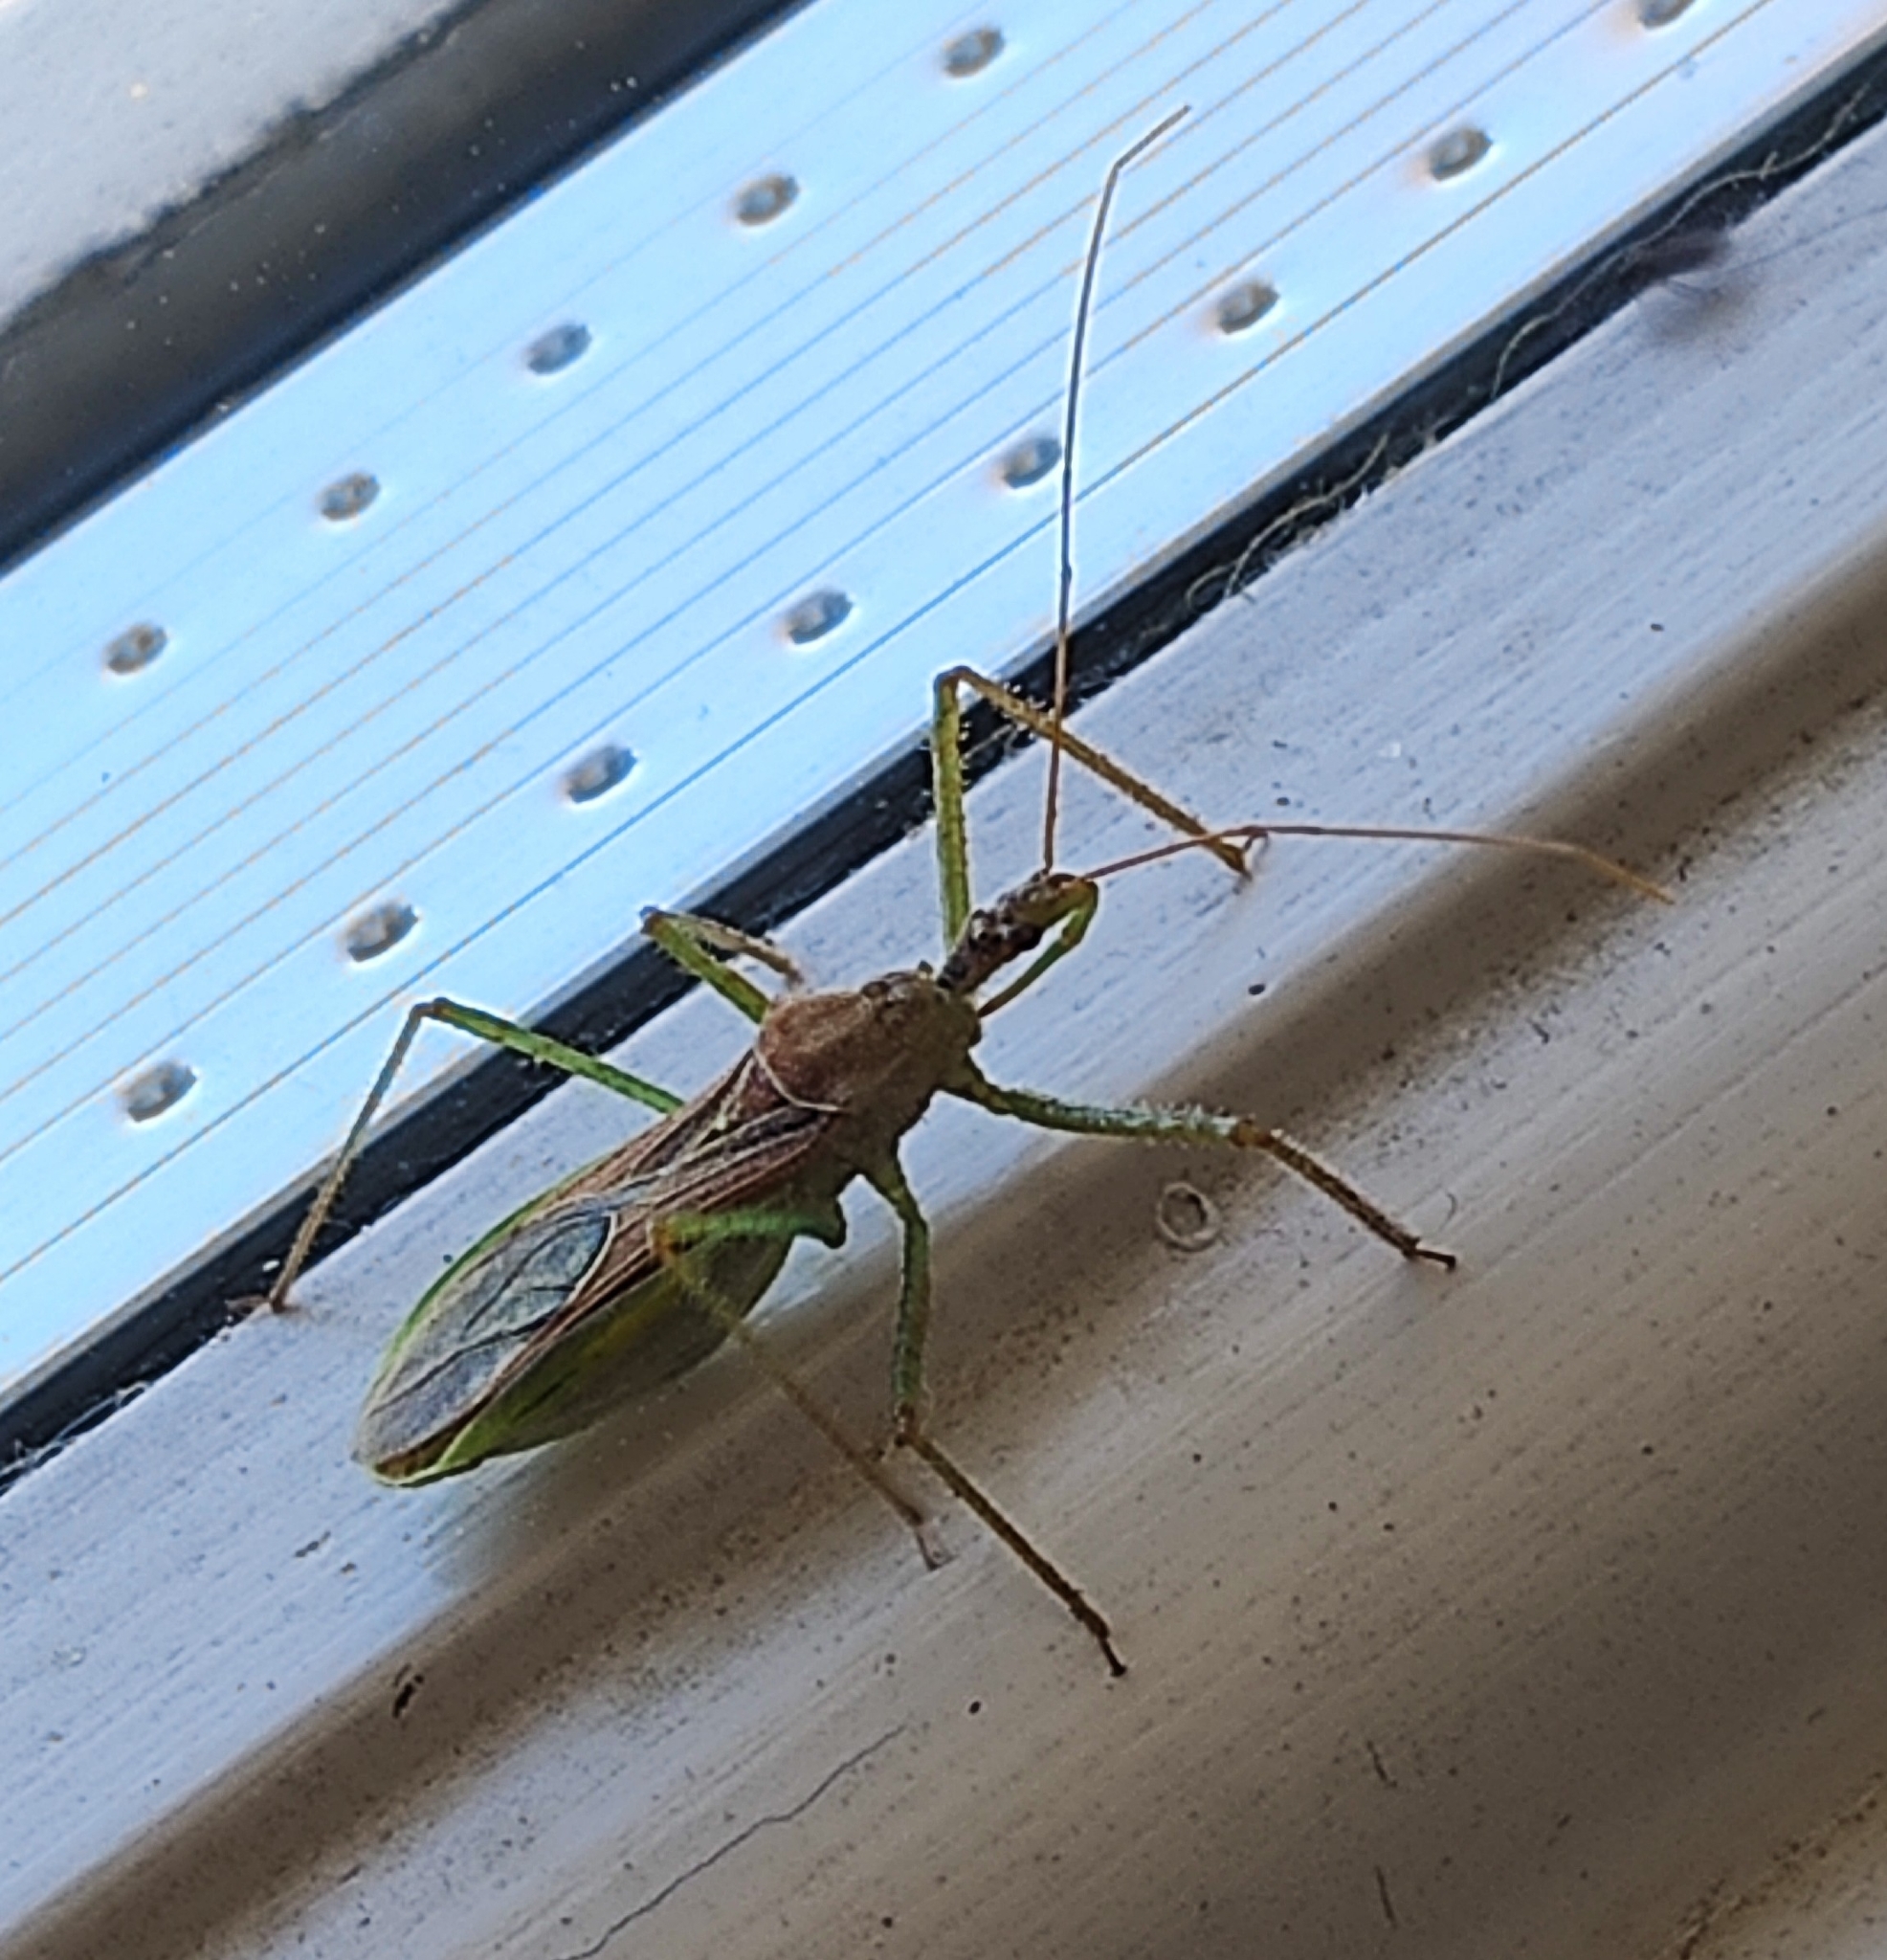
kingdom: Animalia
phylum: Arthropoda
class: Insecta
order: Hemiptera
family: Reduviidae
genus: Zelus
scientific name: Zelus renardii
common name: Assassin bug
